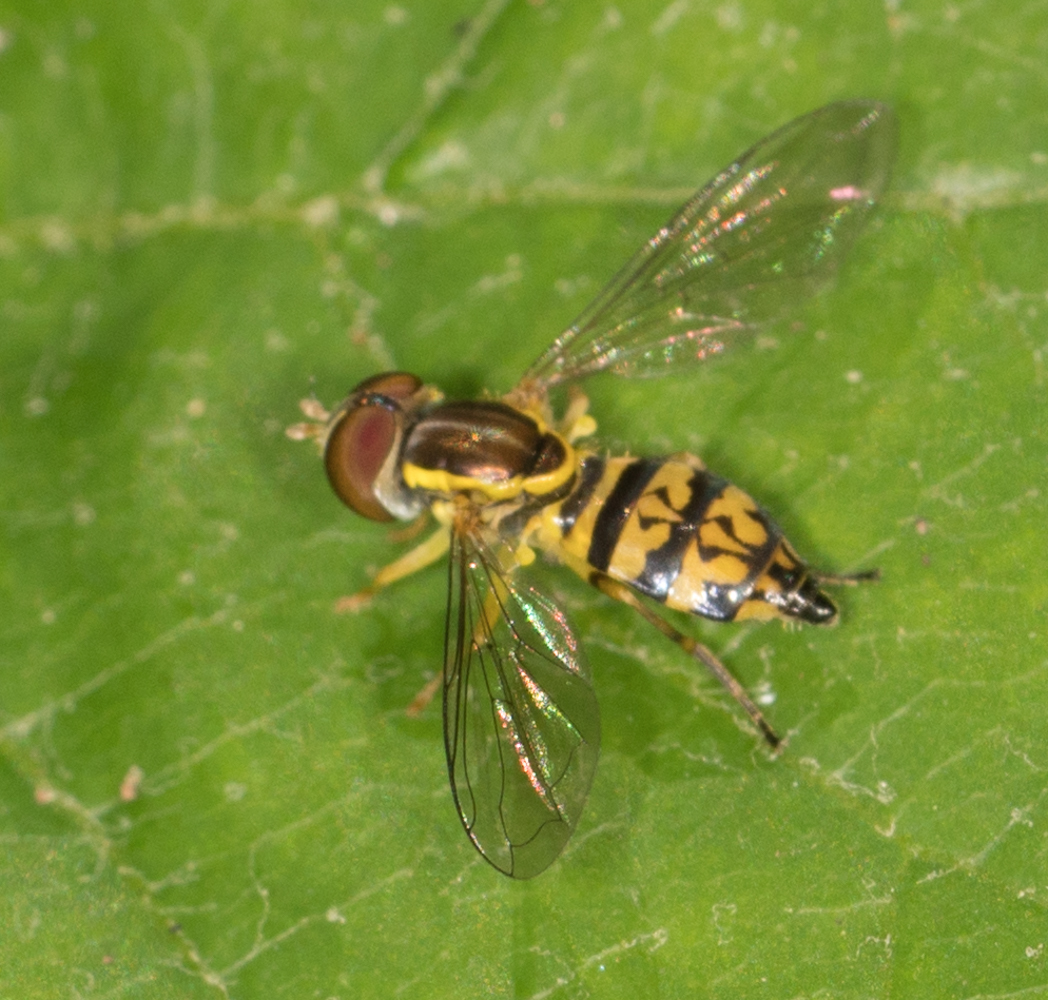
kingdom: Animalia
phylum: Arthropoda
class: Insecta
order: Diptera
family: Syrphidae
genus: Toxomerus
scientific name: Toxomerus geminatus
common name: Eastern calligrapher
